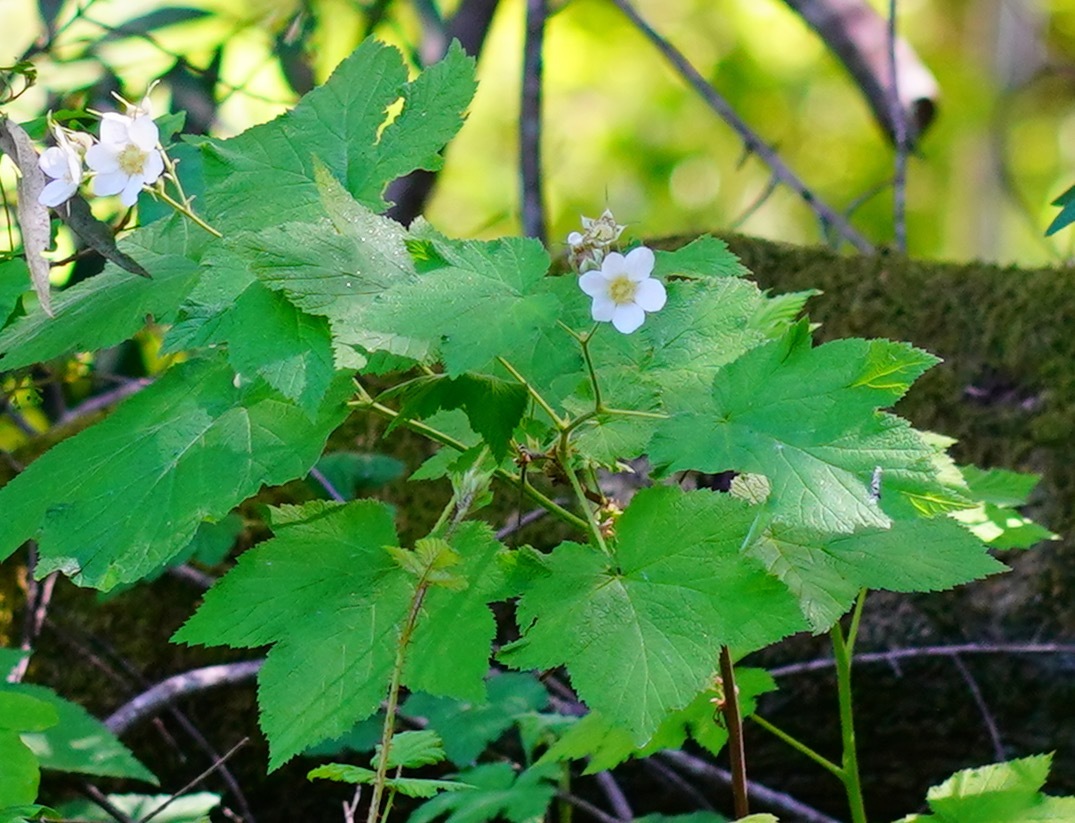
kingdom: Plantae
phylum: Tracheophyta
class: Magnoliopsida
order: Rosales
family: Rosaceae
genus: Rubus
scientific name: Rubus parviflorus
